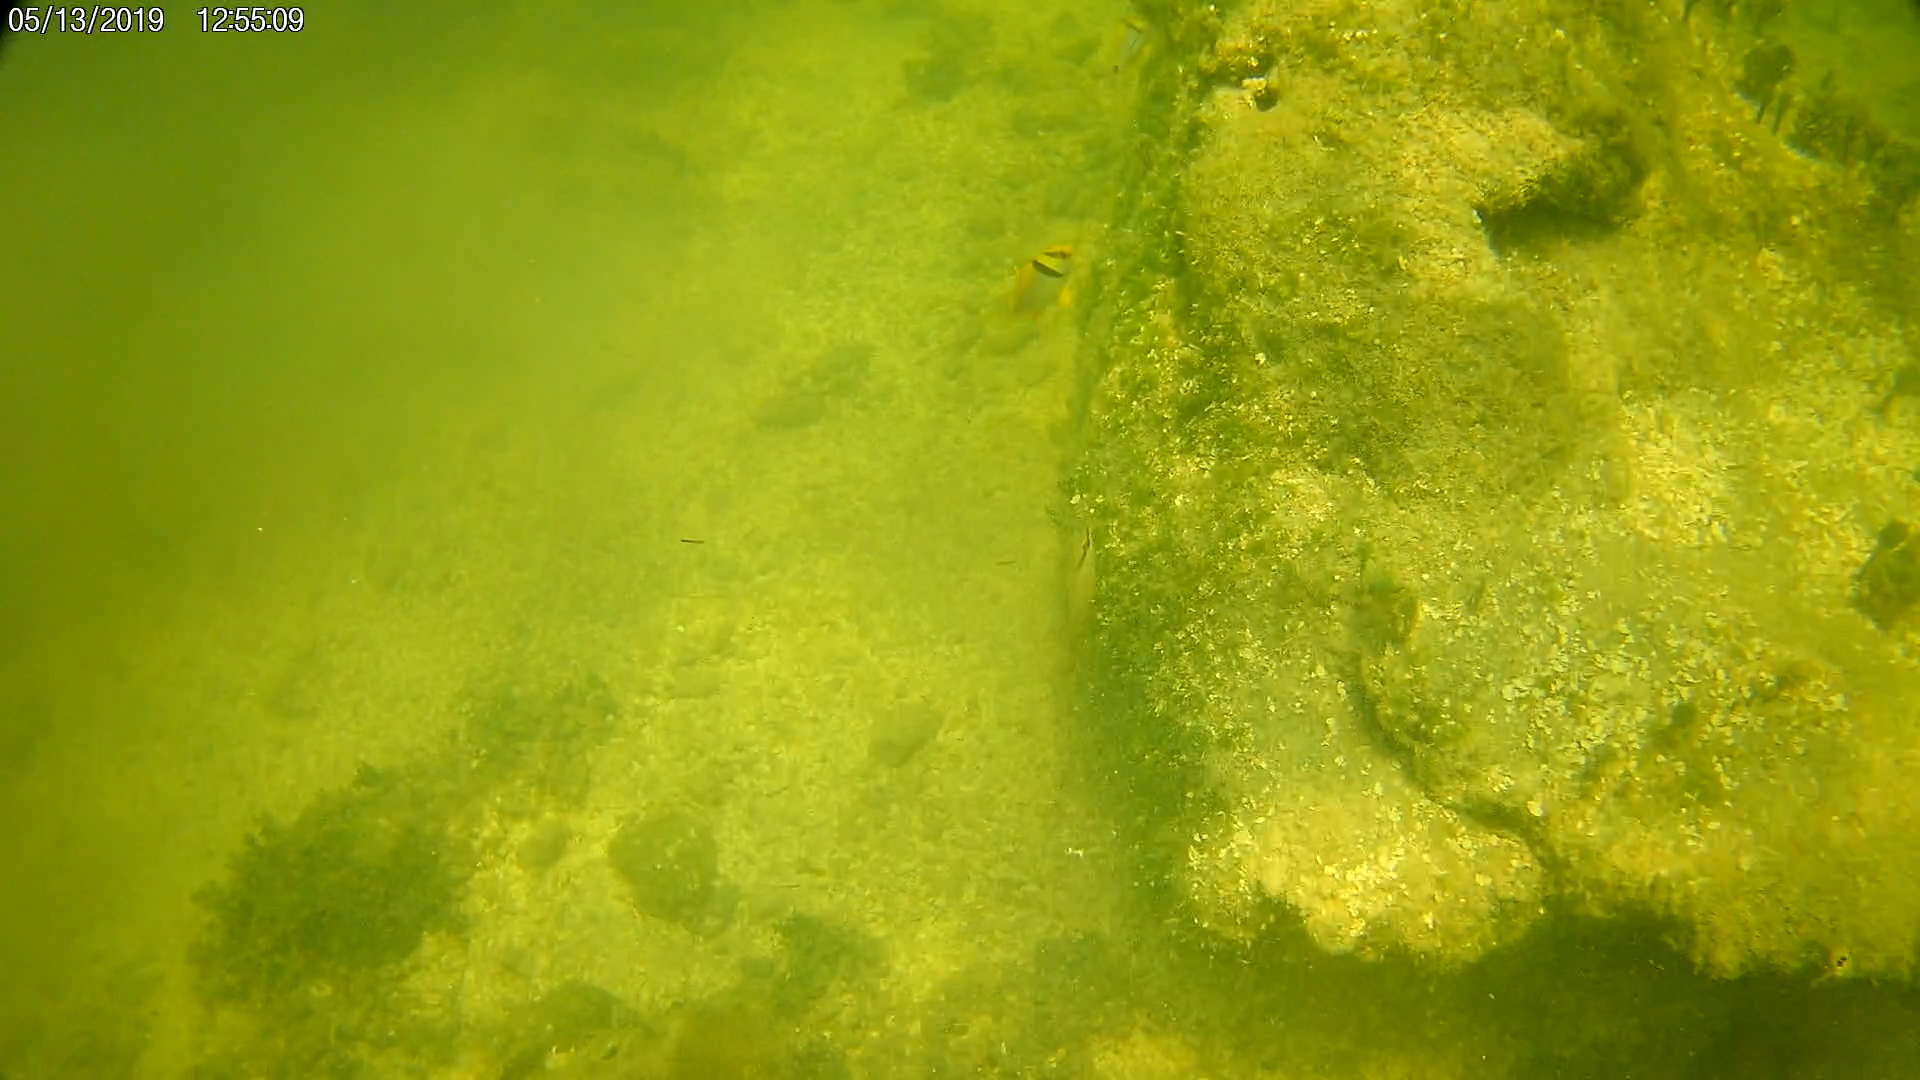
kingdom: Animalia
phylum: Chordata
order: Perciformes
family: Haemulidae
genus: Anisotremus
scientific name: Anisotremus virginicus
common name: Porkfish
